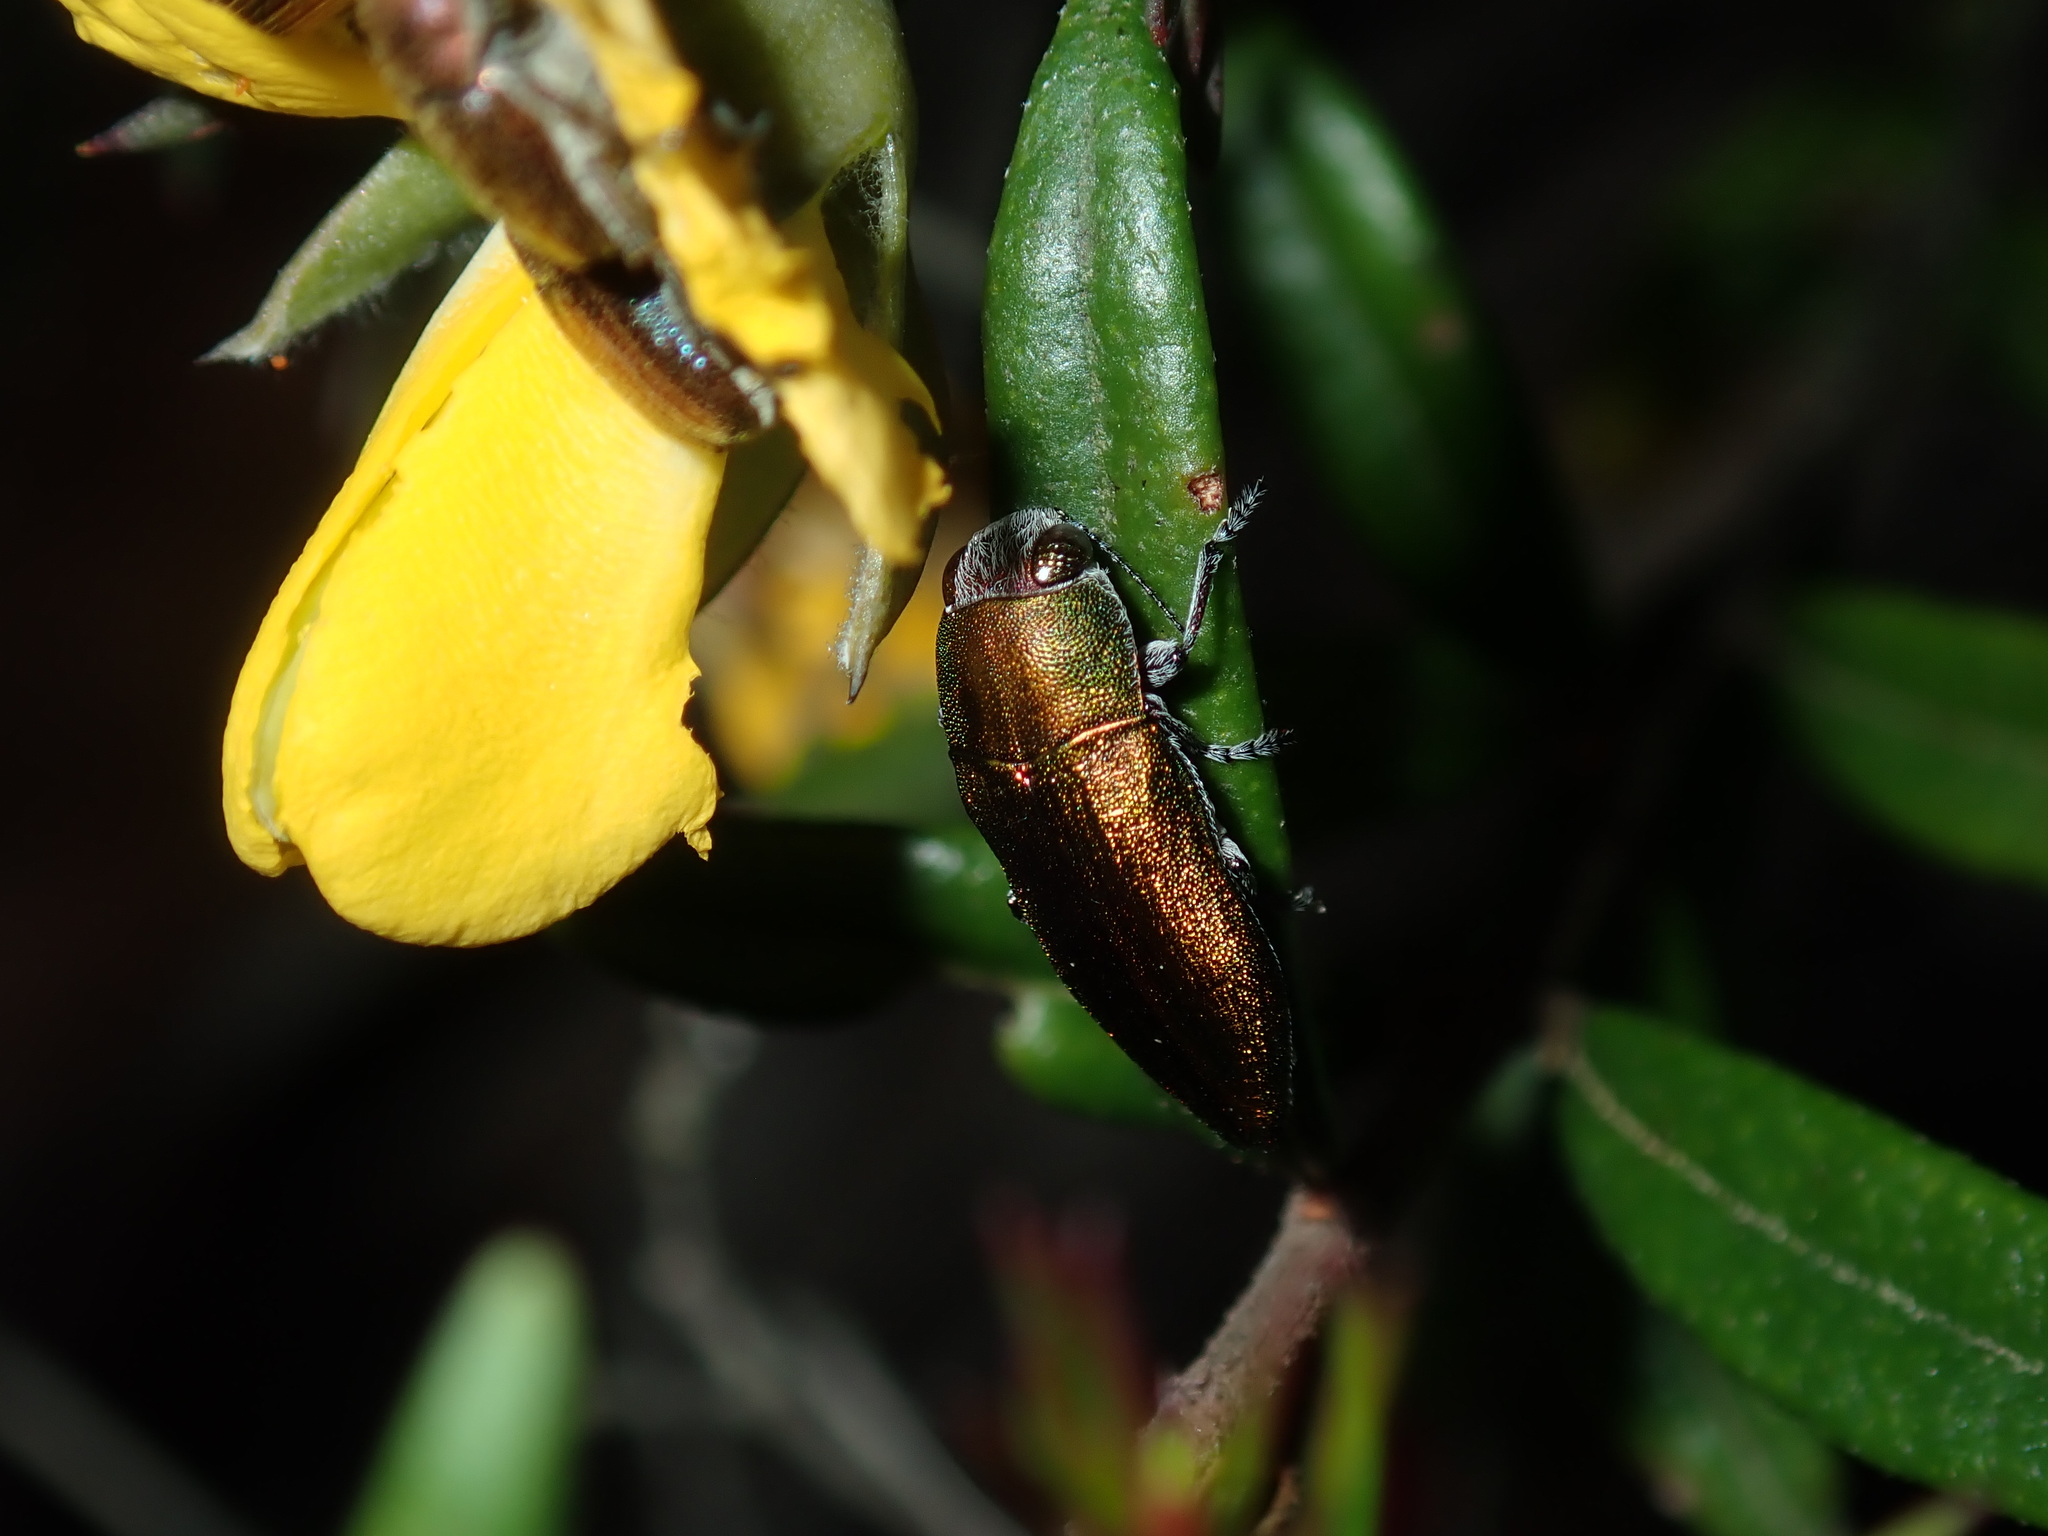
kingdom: Animalia
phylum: Arthropoda
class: Insecta
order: Coleoptera
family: Buprestidae
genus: Melobasis
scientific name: Melobasis propinqua
